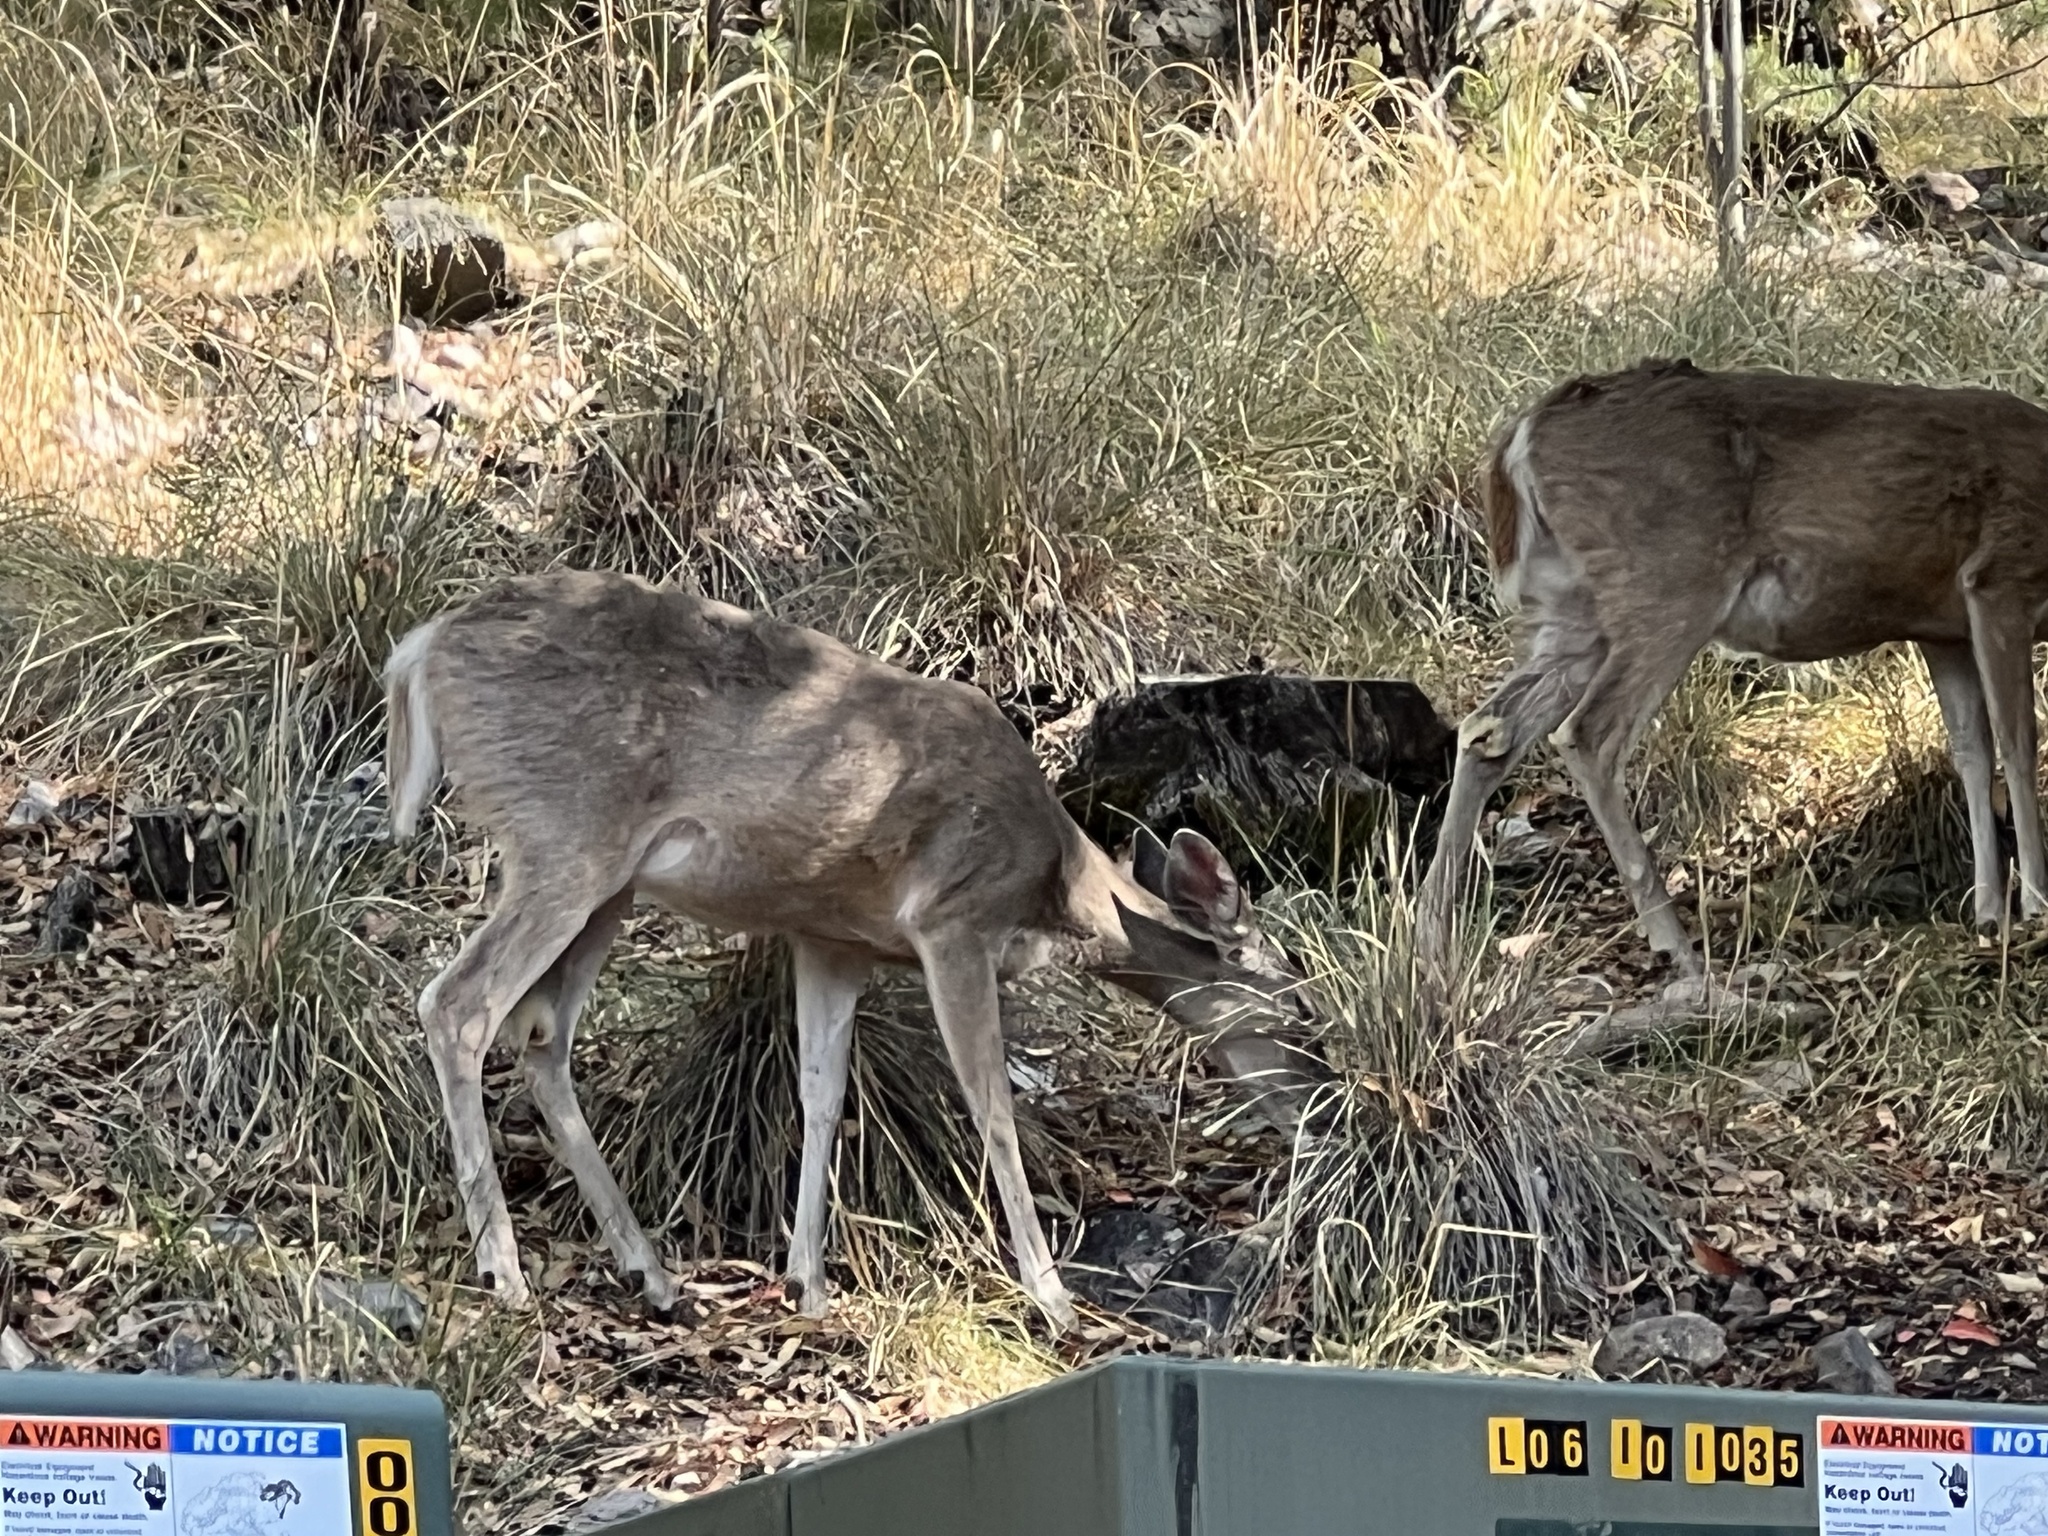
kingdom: Animalia
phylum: Chordata
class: Mammalia
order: Artiodactyla
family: Cervidae
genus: Odocoileus
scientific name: Odocoileus virginianus
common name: White-tailed deer
